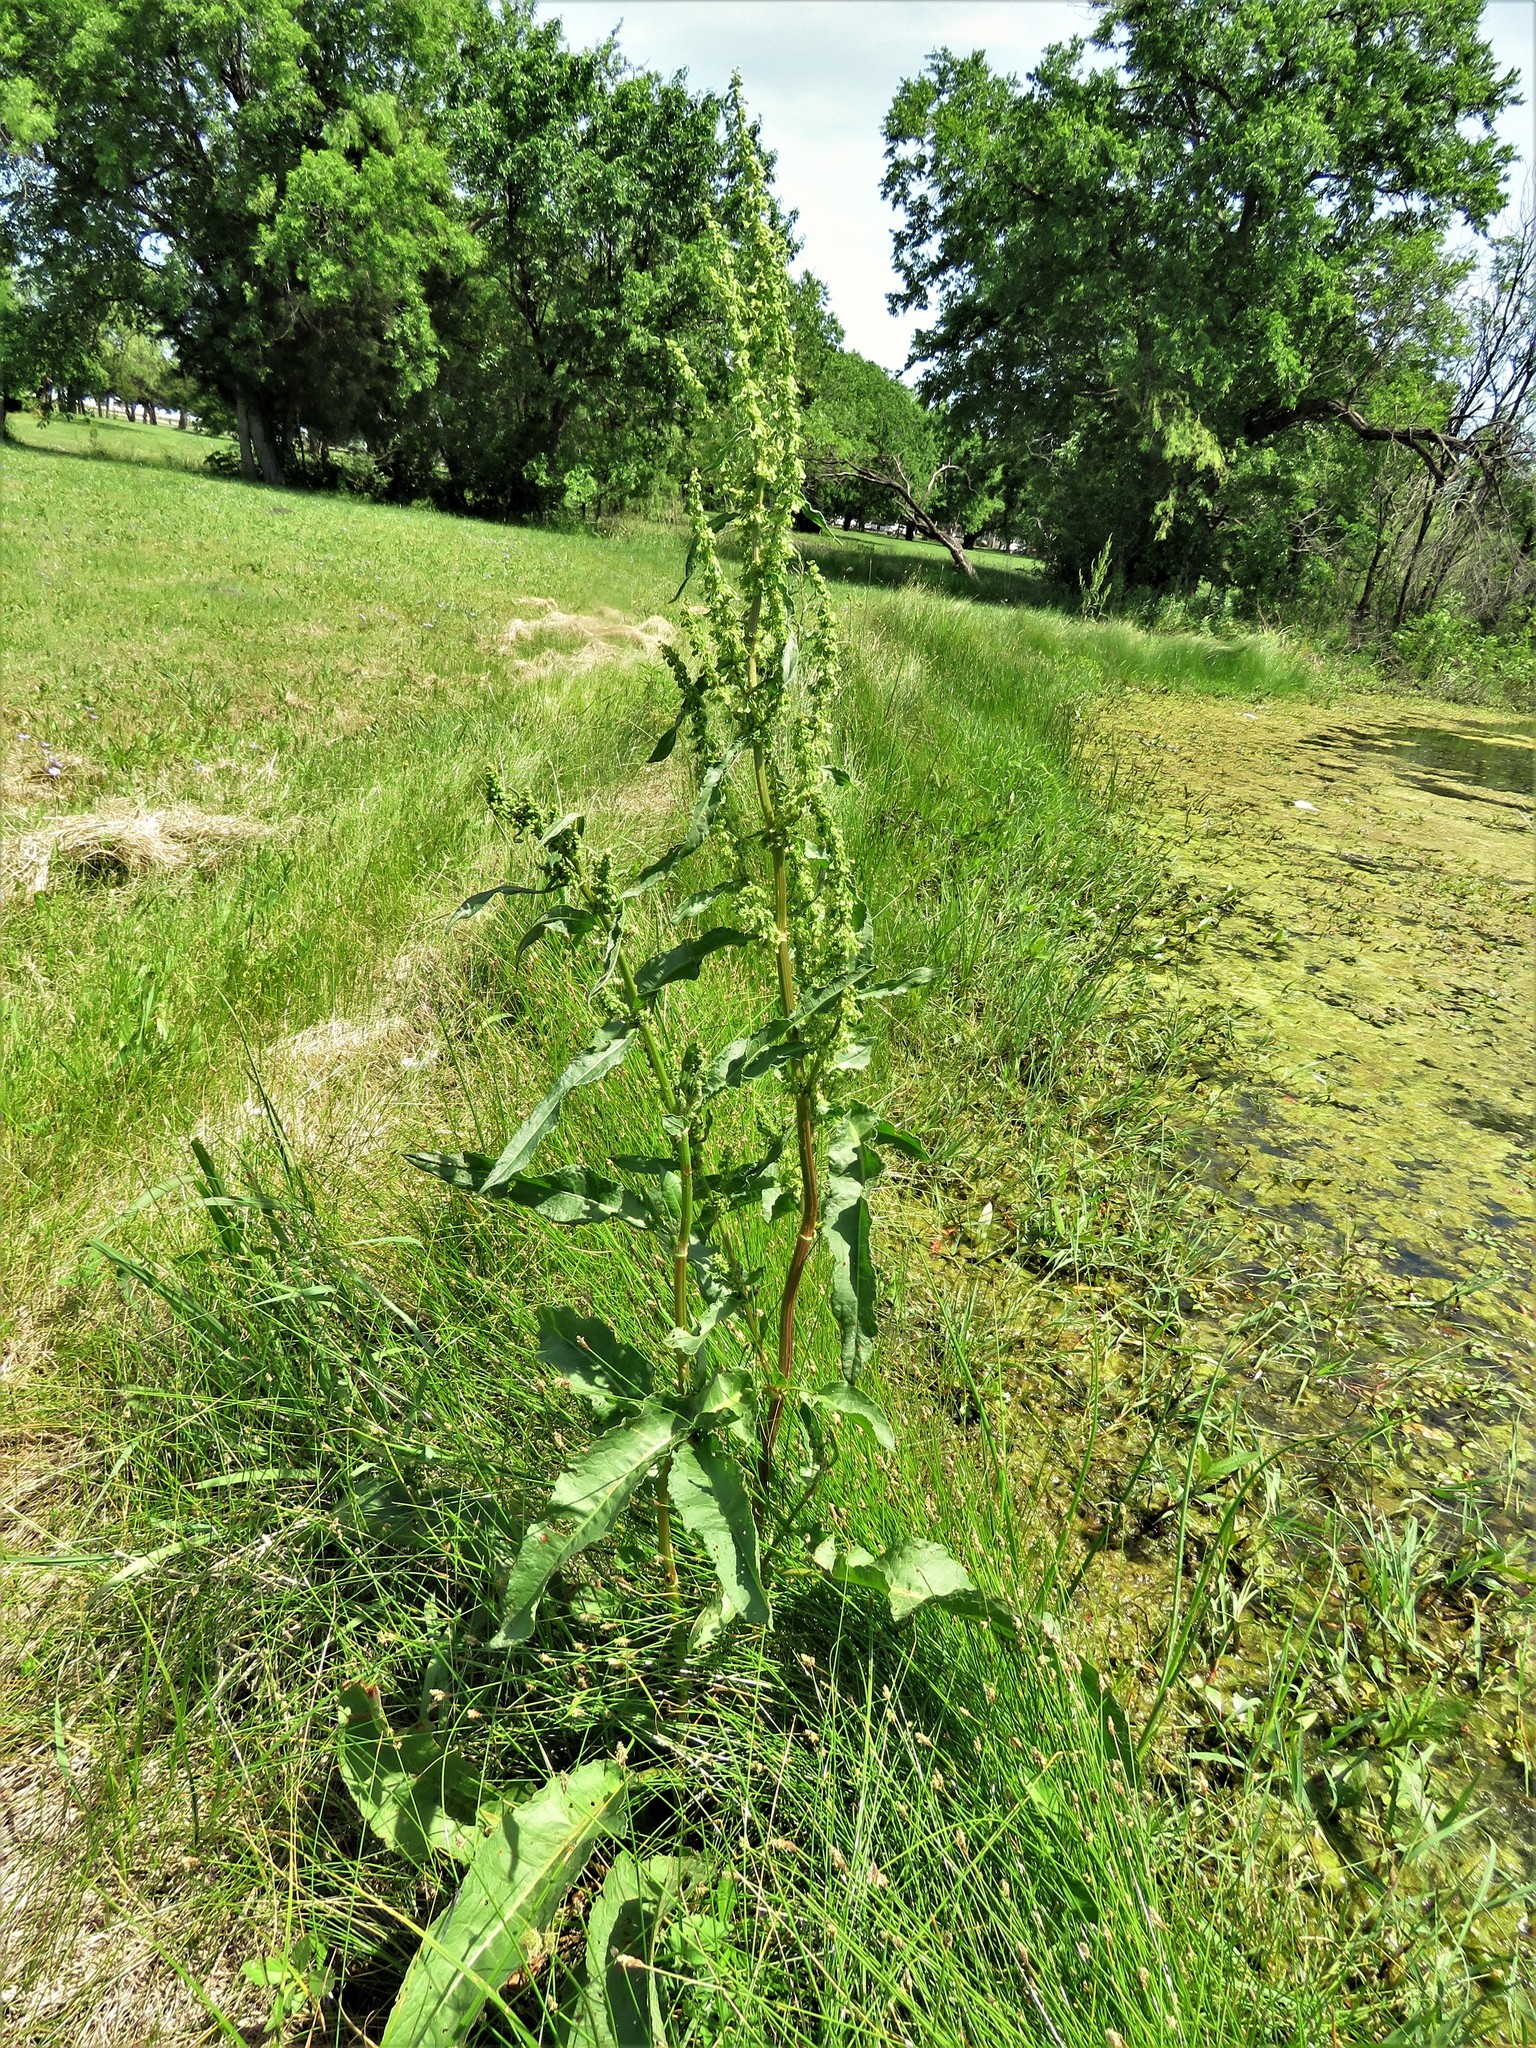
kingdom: Plantae
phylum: Tracheophyta
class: Magnoliopsida
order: Caryophyllales
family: Polygonaceae
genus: Rumex
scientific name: Rumex crispus
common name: Curled dock
